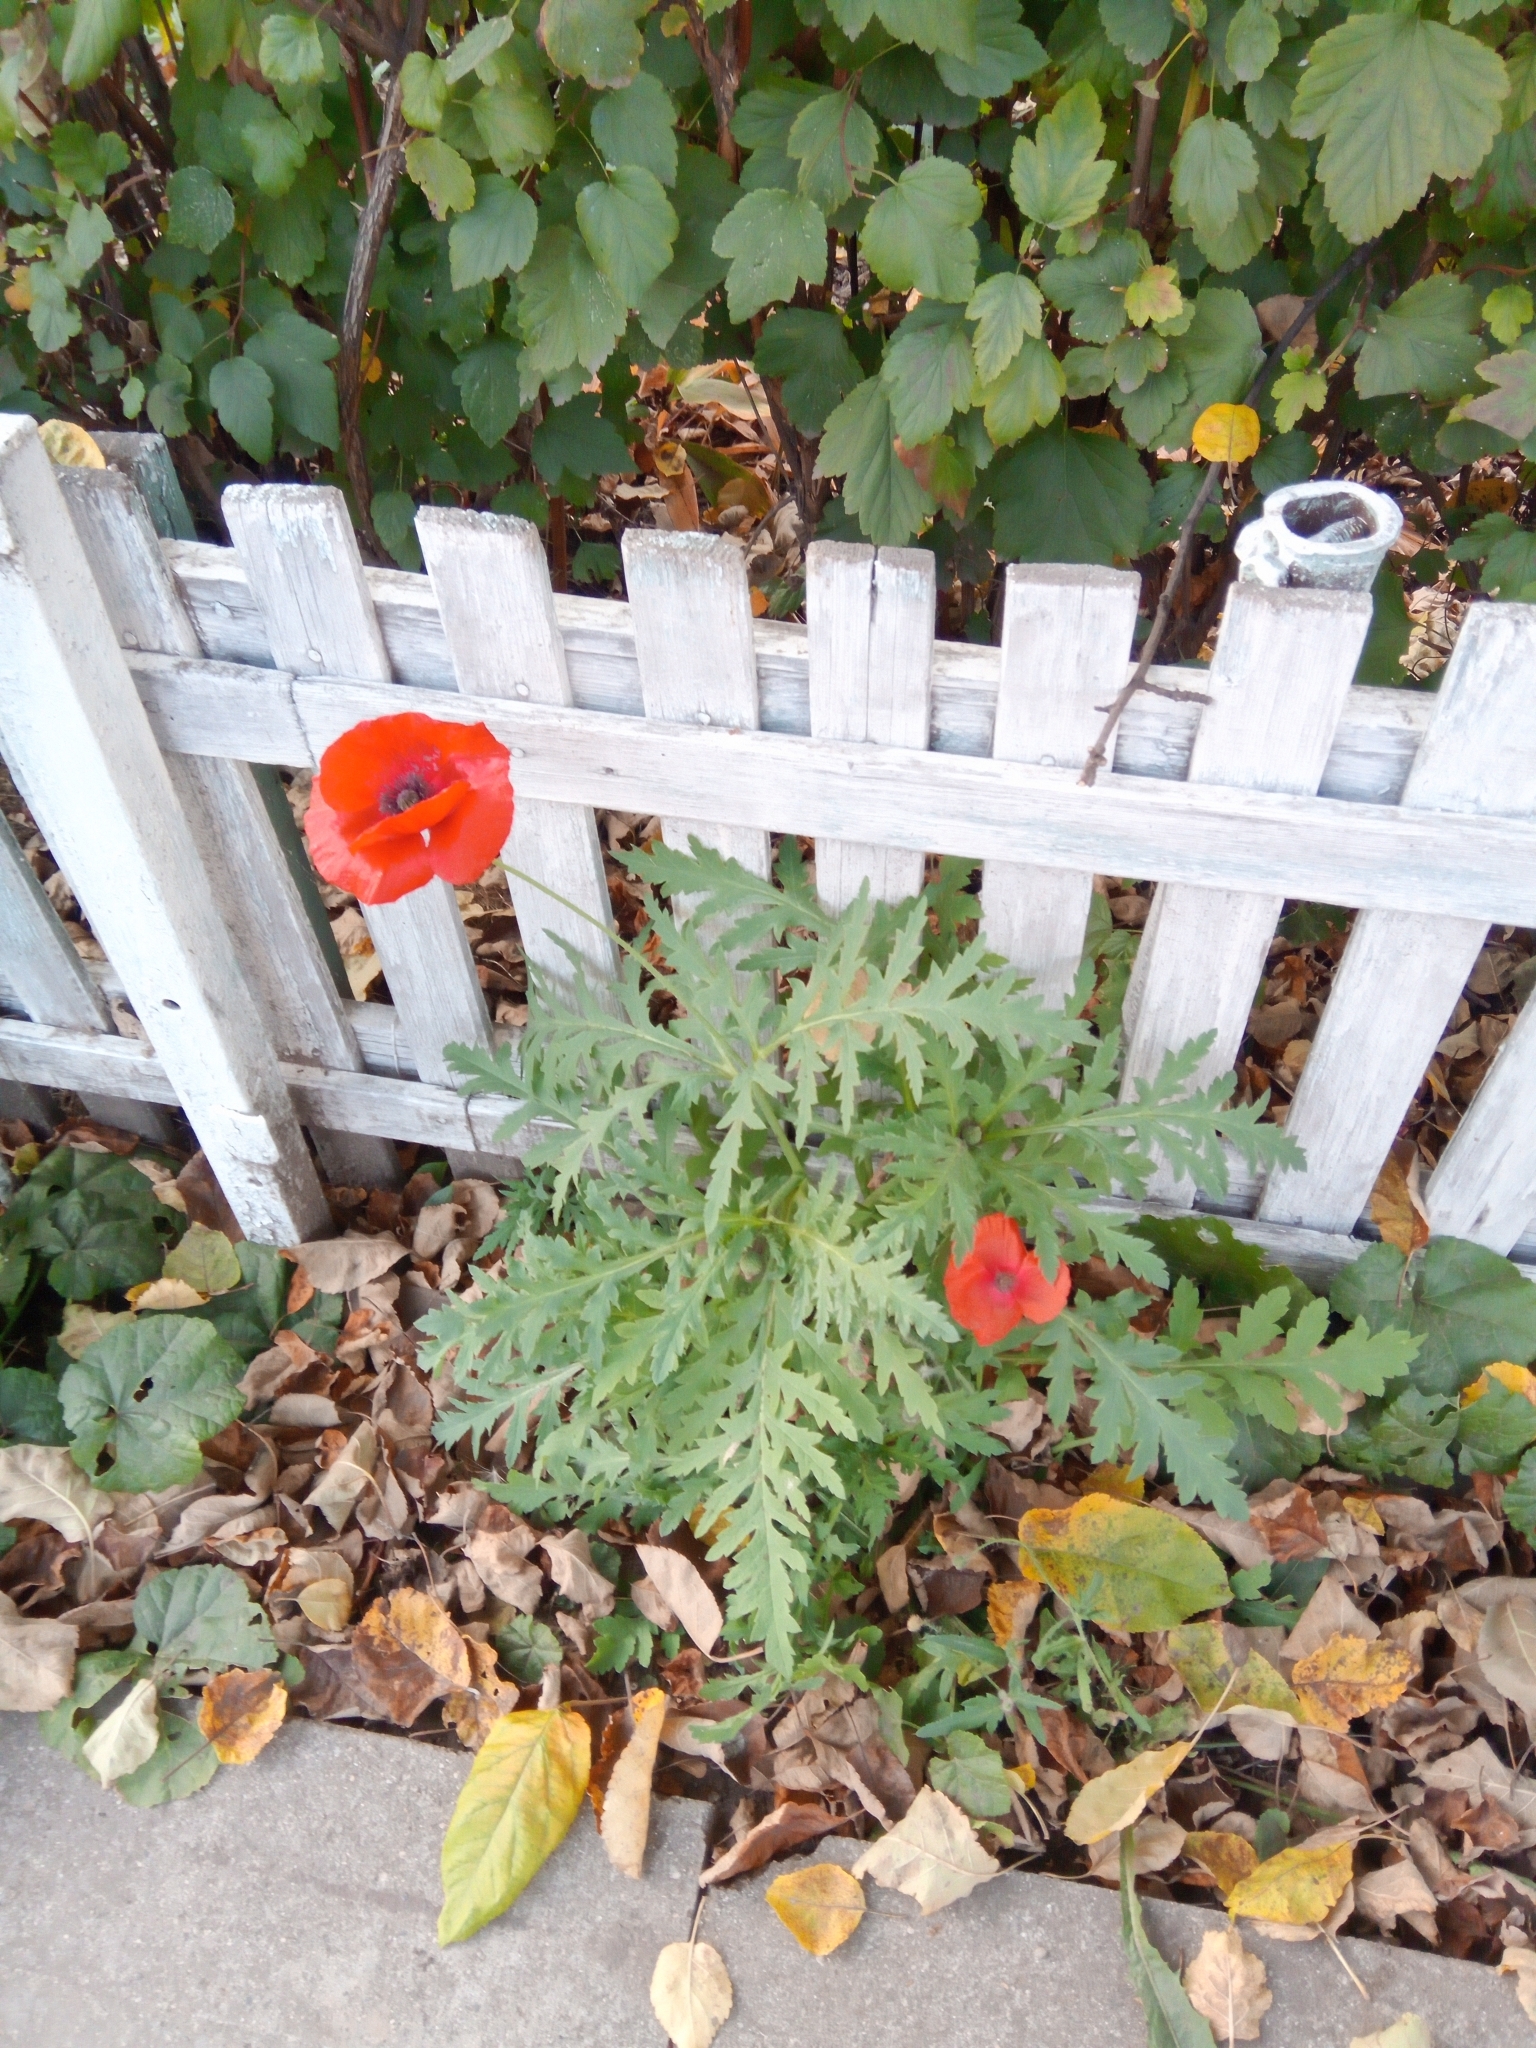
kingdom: Plantae
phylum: Tracheophyta
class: Magnoliopsida
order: Ranunculales
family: Papaveraceae
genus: Papaver
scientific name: Papaver rhoeas
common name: Corn poppy
